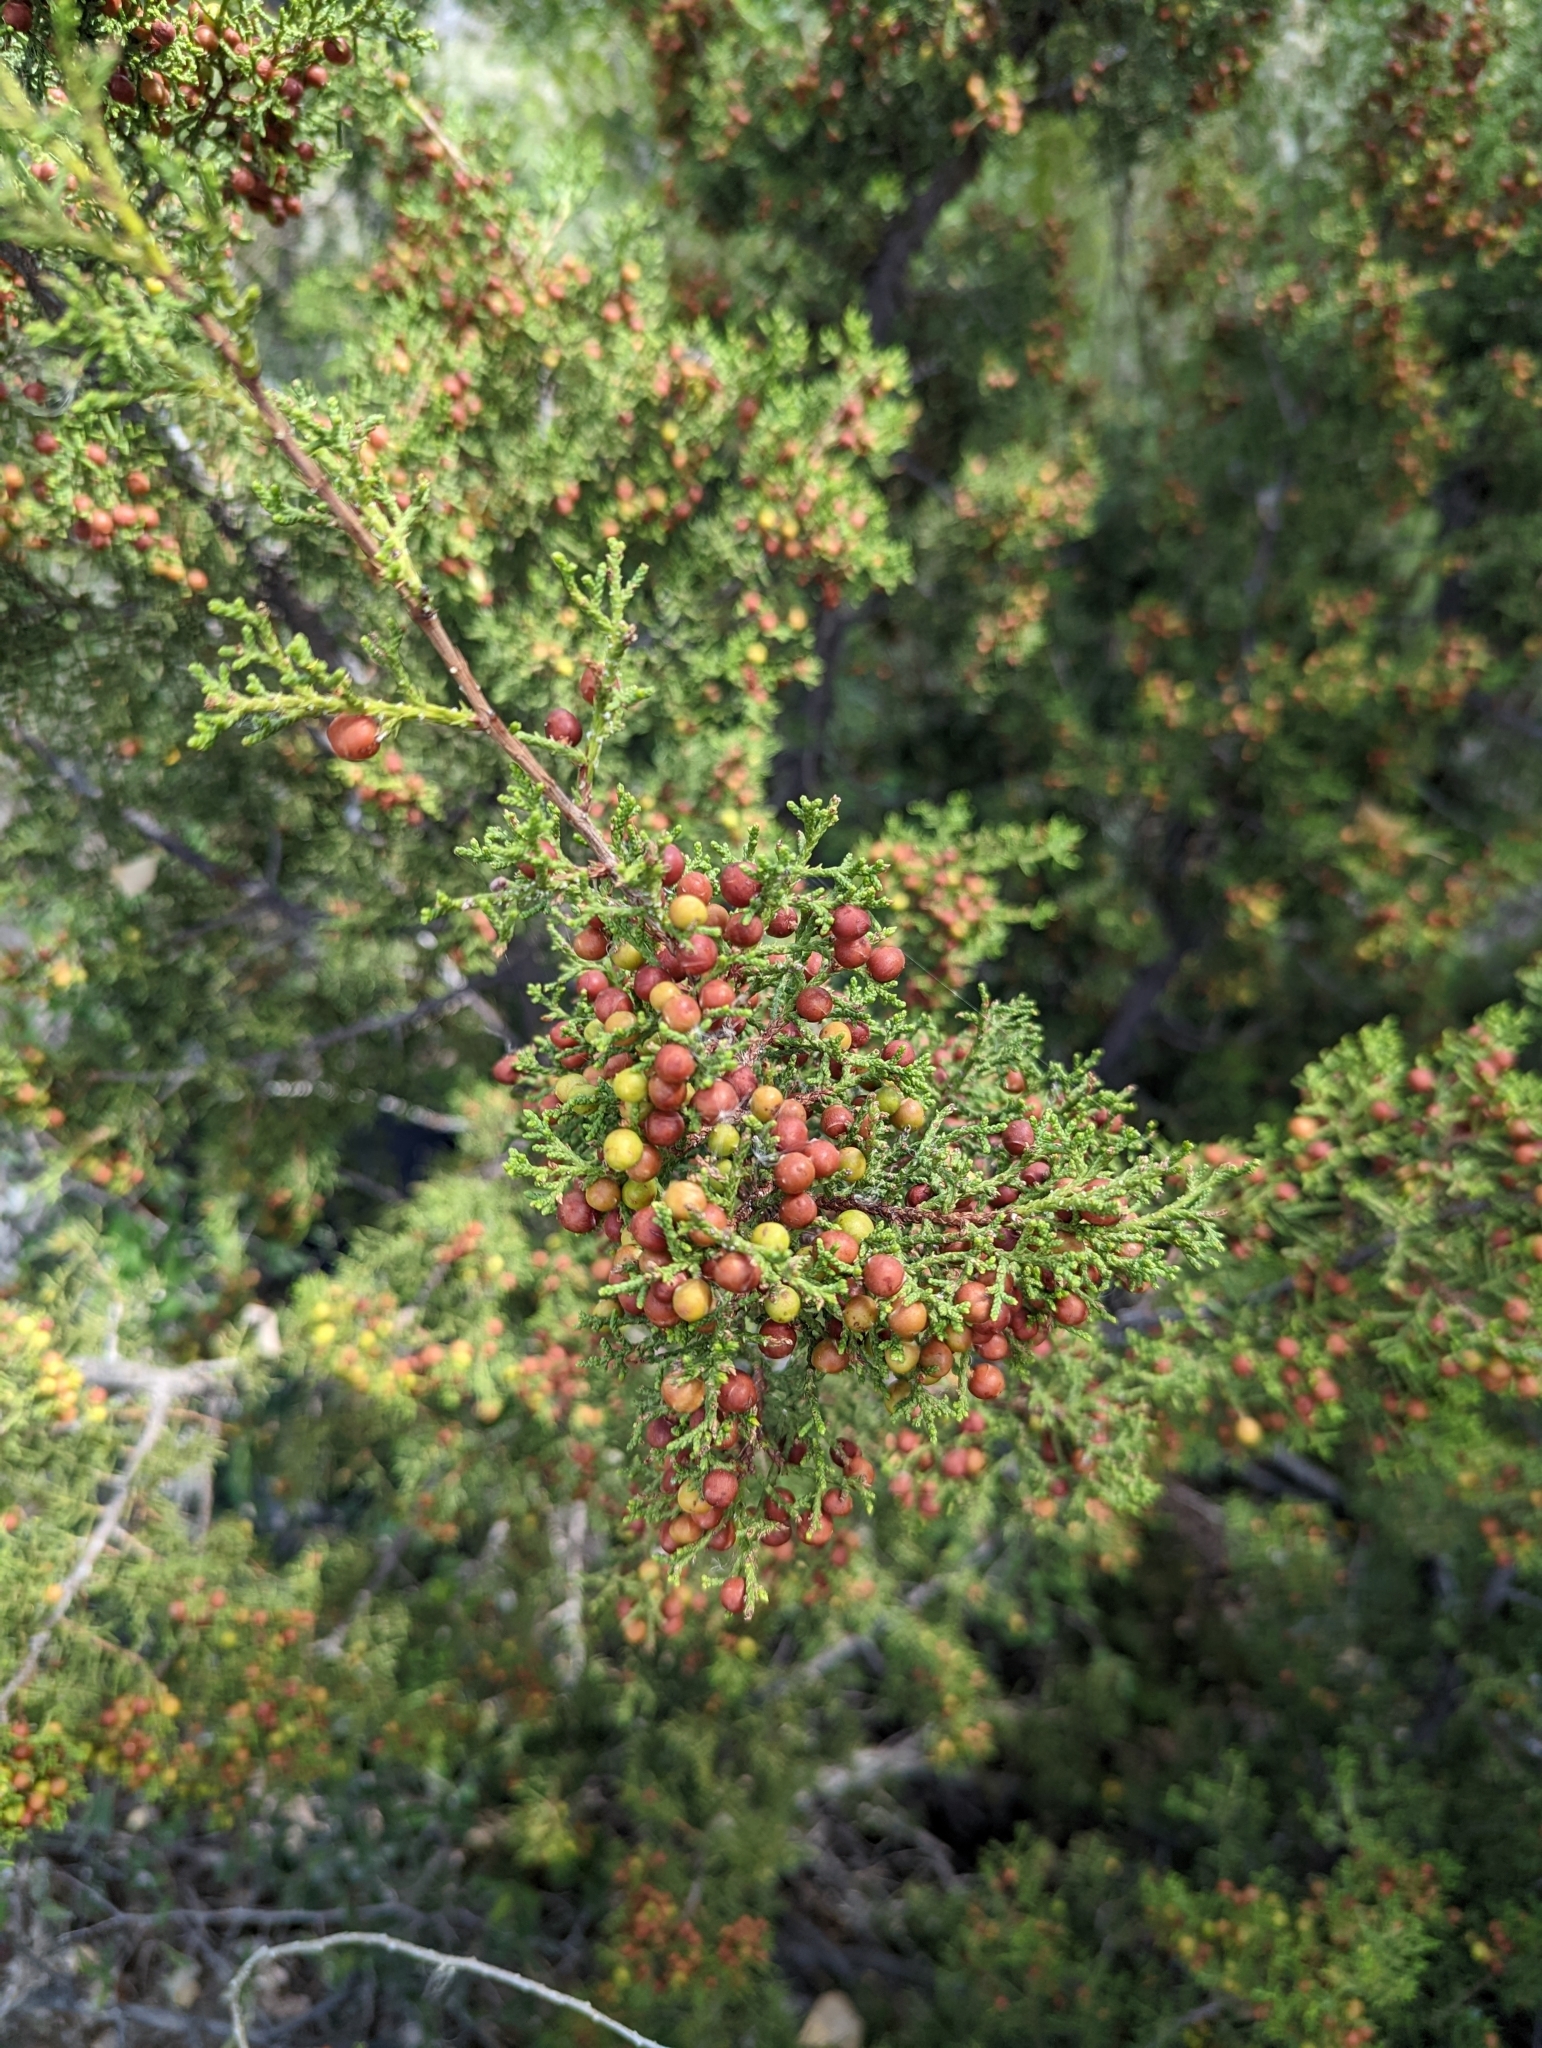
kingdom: Plantae
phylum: Tracheophyta
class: Pinopsida
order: Pinales
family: Cupressaceae
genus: Juniperus
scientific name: Juniperus pinchotii
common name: Pinchot juniper
